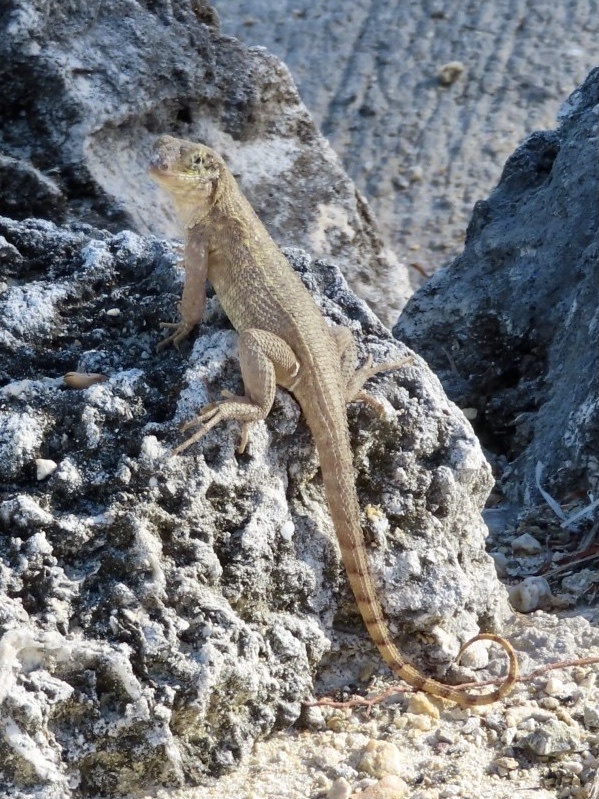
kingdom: Animalia
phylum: Chordata
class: Squamata
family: Leiocephalidae
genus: Leiocephalus
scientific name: Leiocephalus carinatus
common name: Northern curly-tailed lizard
